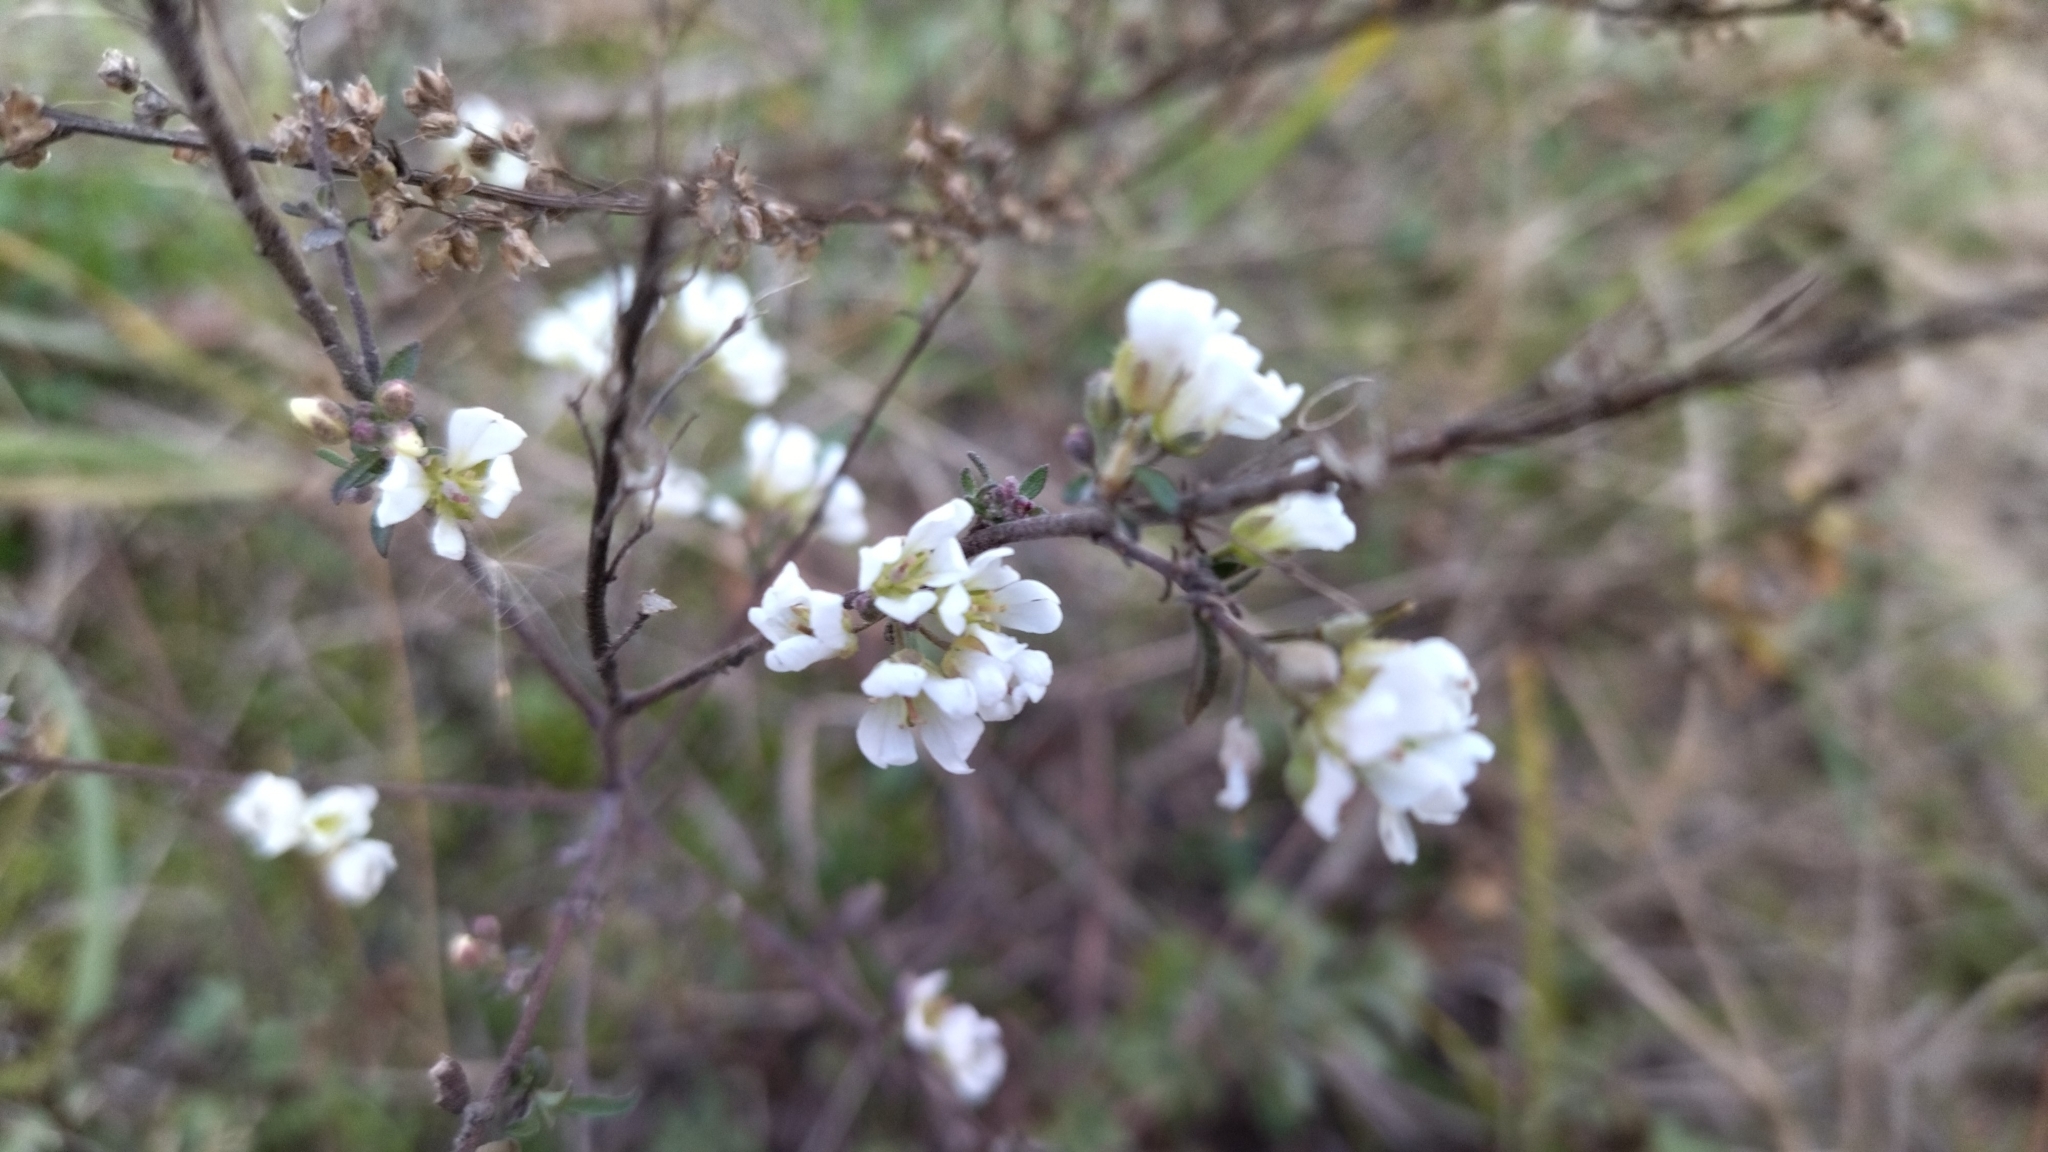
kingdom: Plantae
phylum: Tracheophyta
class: Magnoliopsida
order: Brassicales
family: Brassicaceae
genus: Berteroa
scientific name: Berteroa incana
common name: Hoary alison
